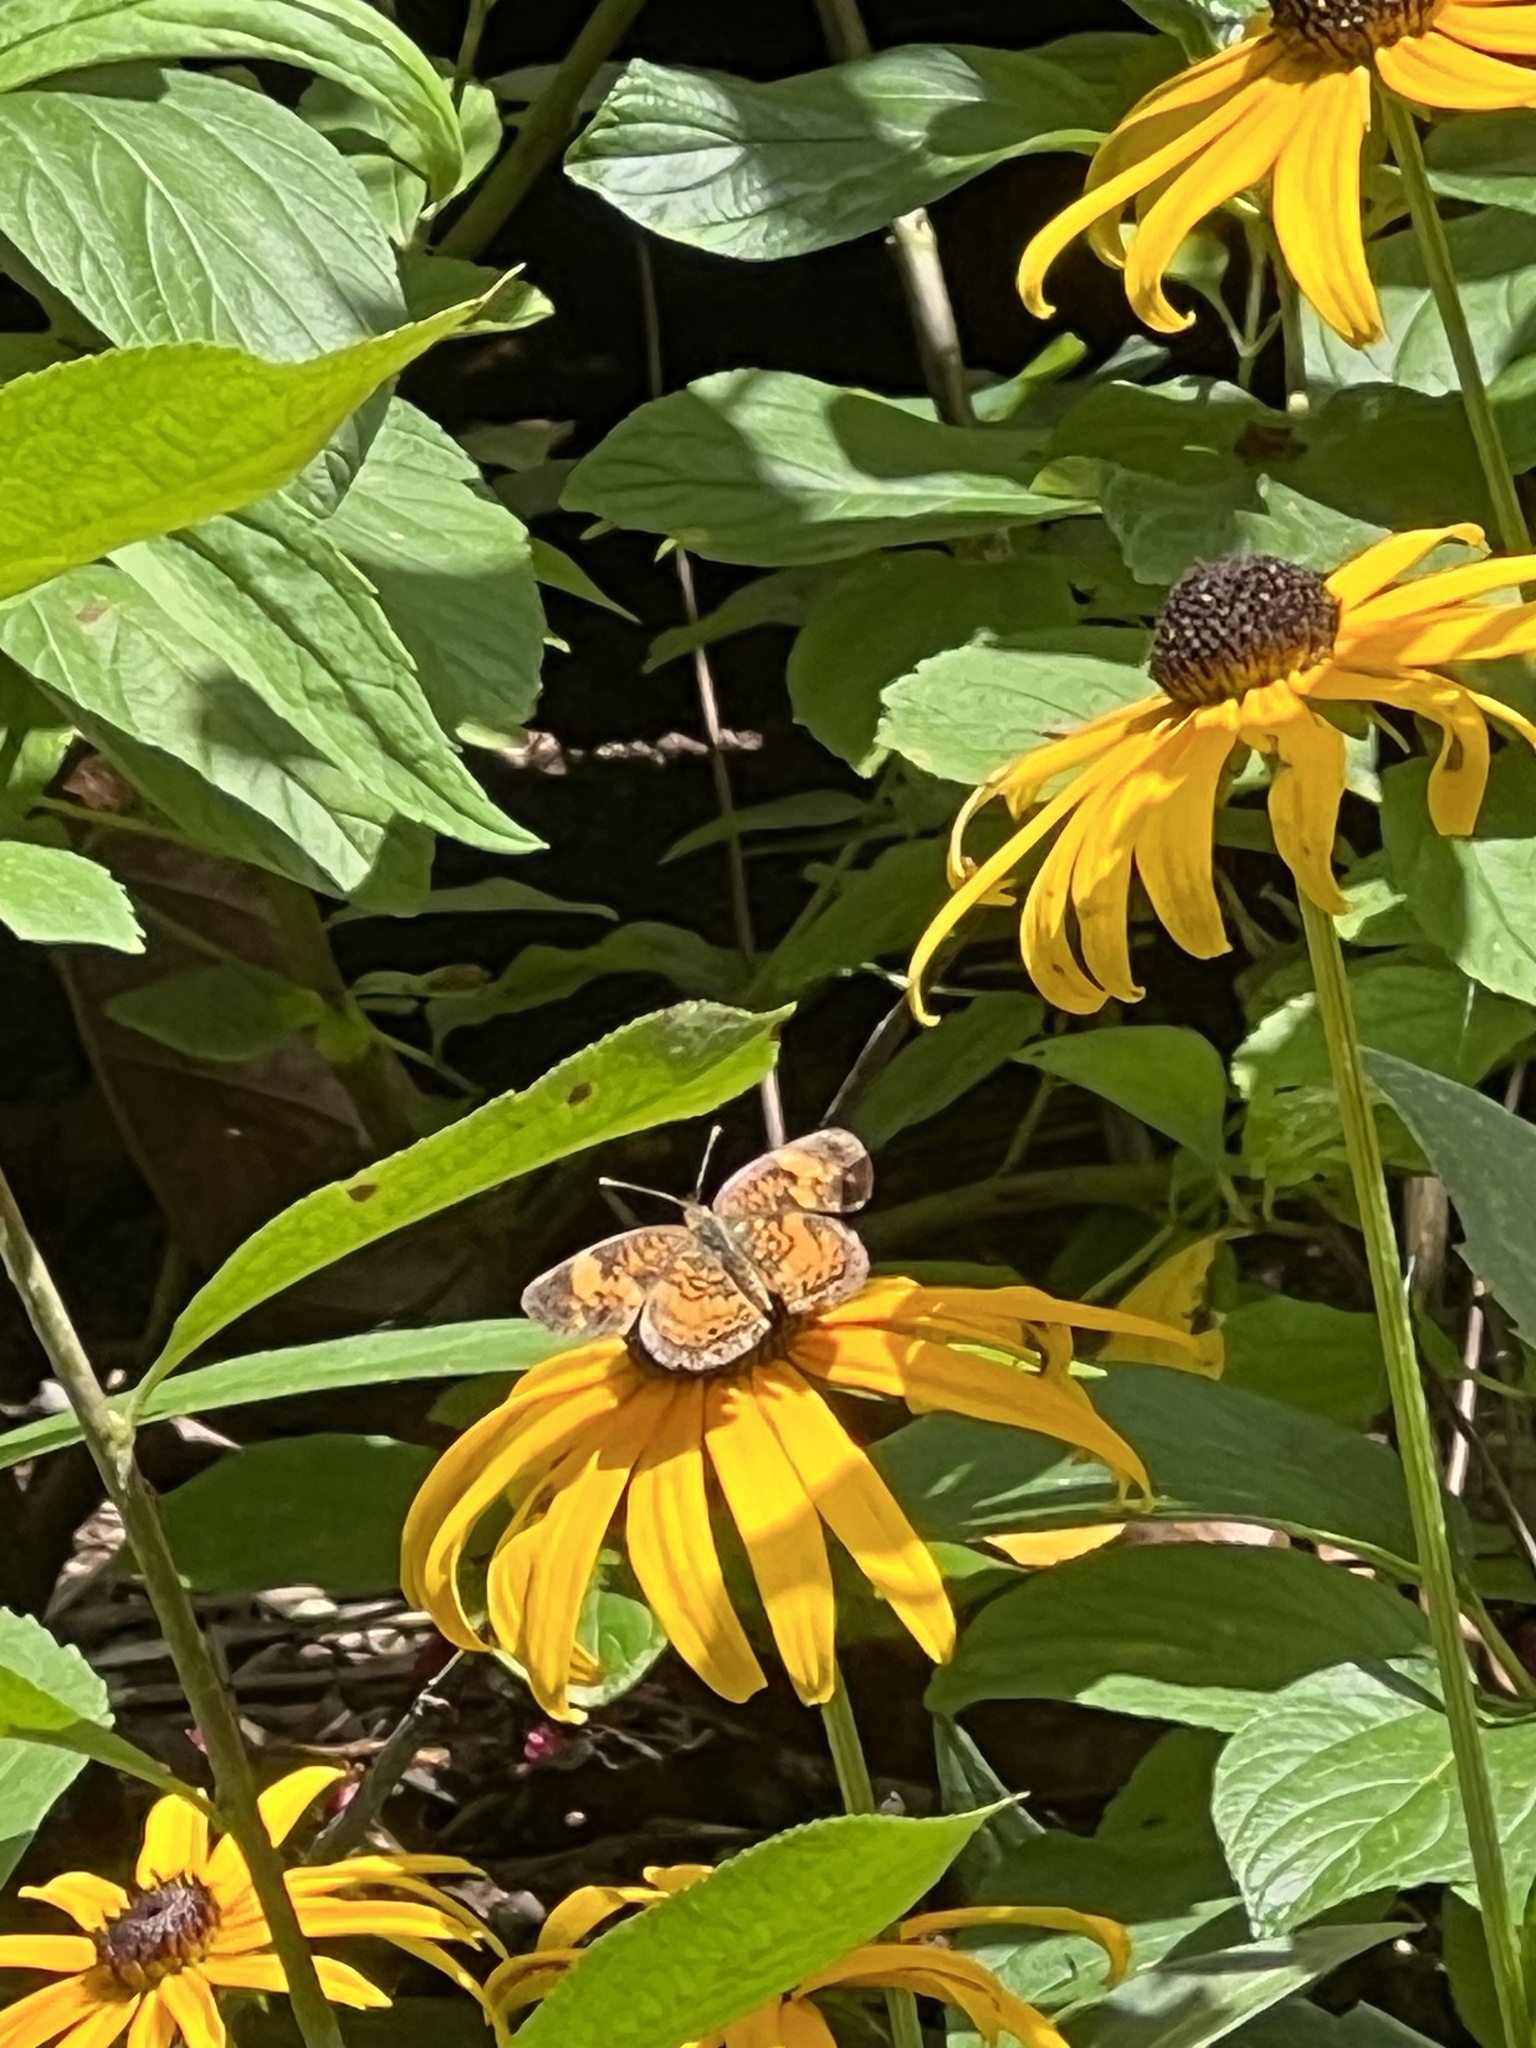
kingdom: Animalia
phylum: Arthropoda
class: Insecta
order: Lepidoptera
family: Nymphalidae
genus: Phyciodes
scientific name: Phyciodes tharos
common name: Pearl crescent
